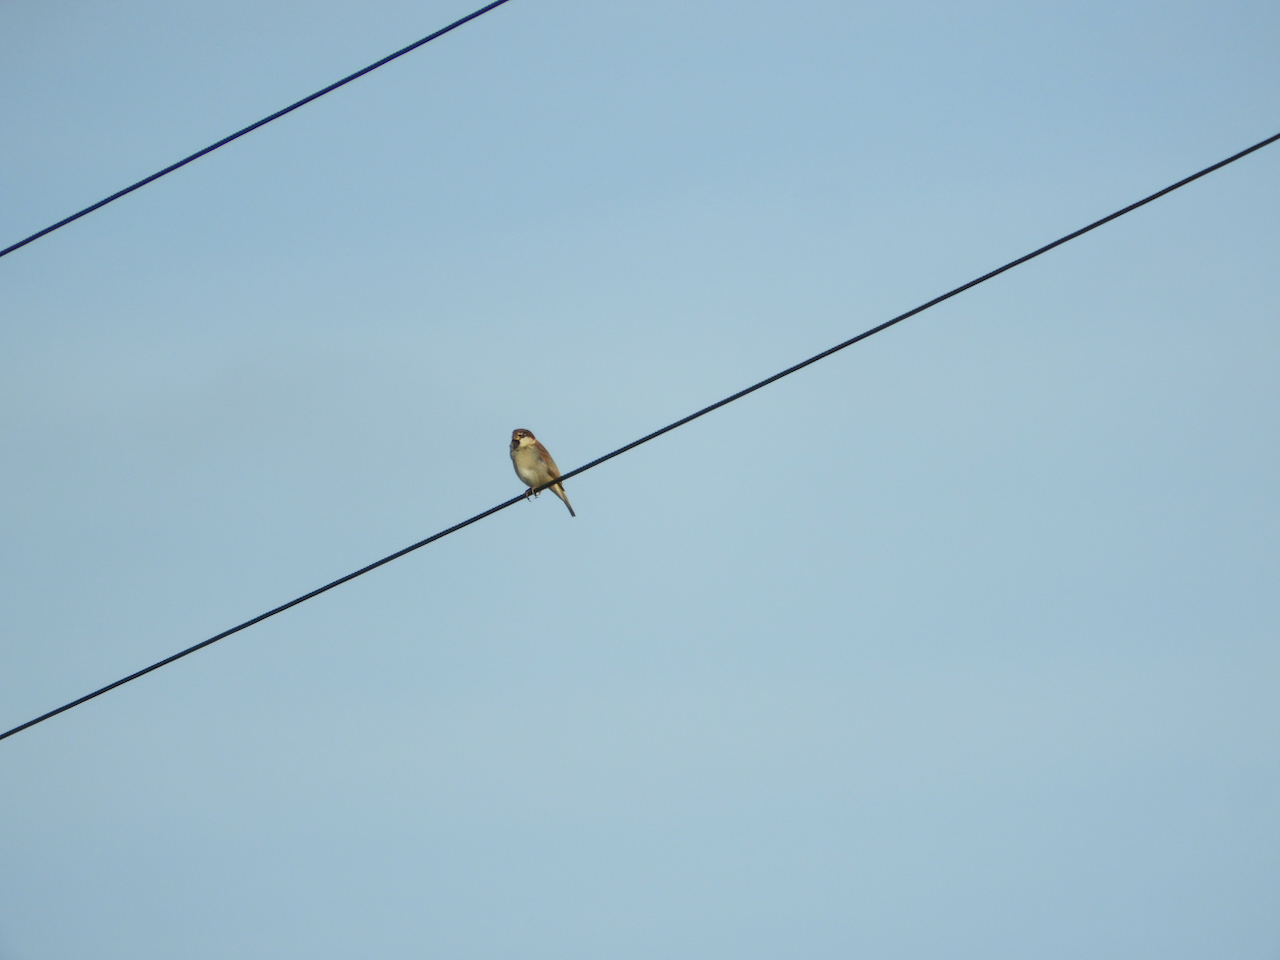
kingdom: Animalia
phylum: Chordata
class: Aves
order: Passeriformes
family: Passeridae
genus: Passer
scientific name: Passer italiae
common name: Italian sparrow
